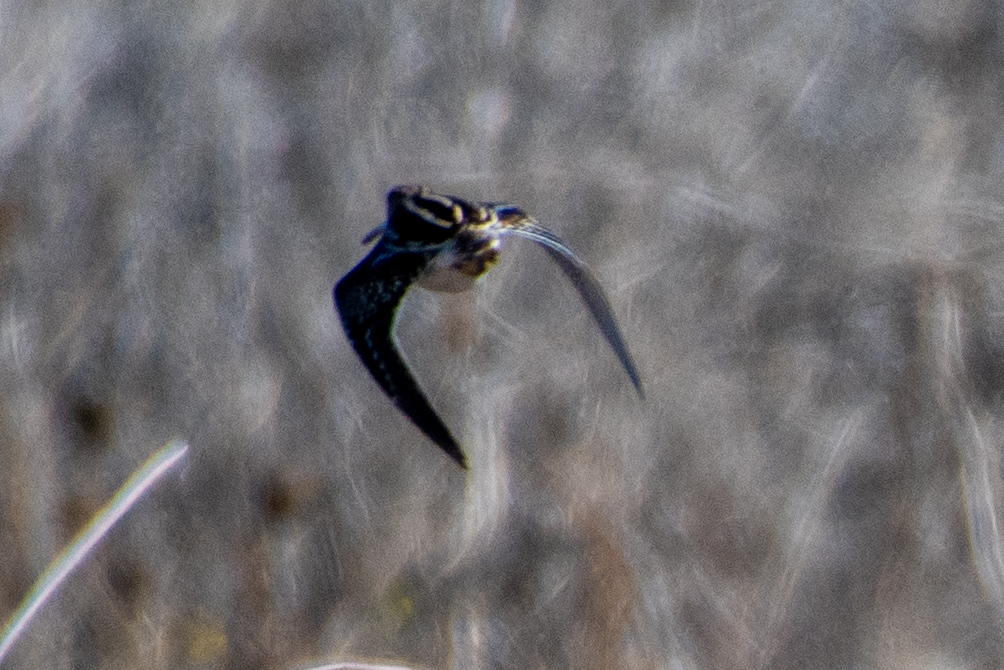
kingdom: Animalia
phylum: Chordata
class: Aves
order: Charadriiformes
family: Scolopacidae
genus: Gallinago
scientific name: Gallinago delicata
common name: Wilson's snipe
